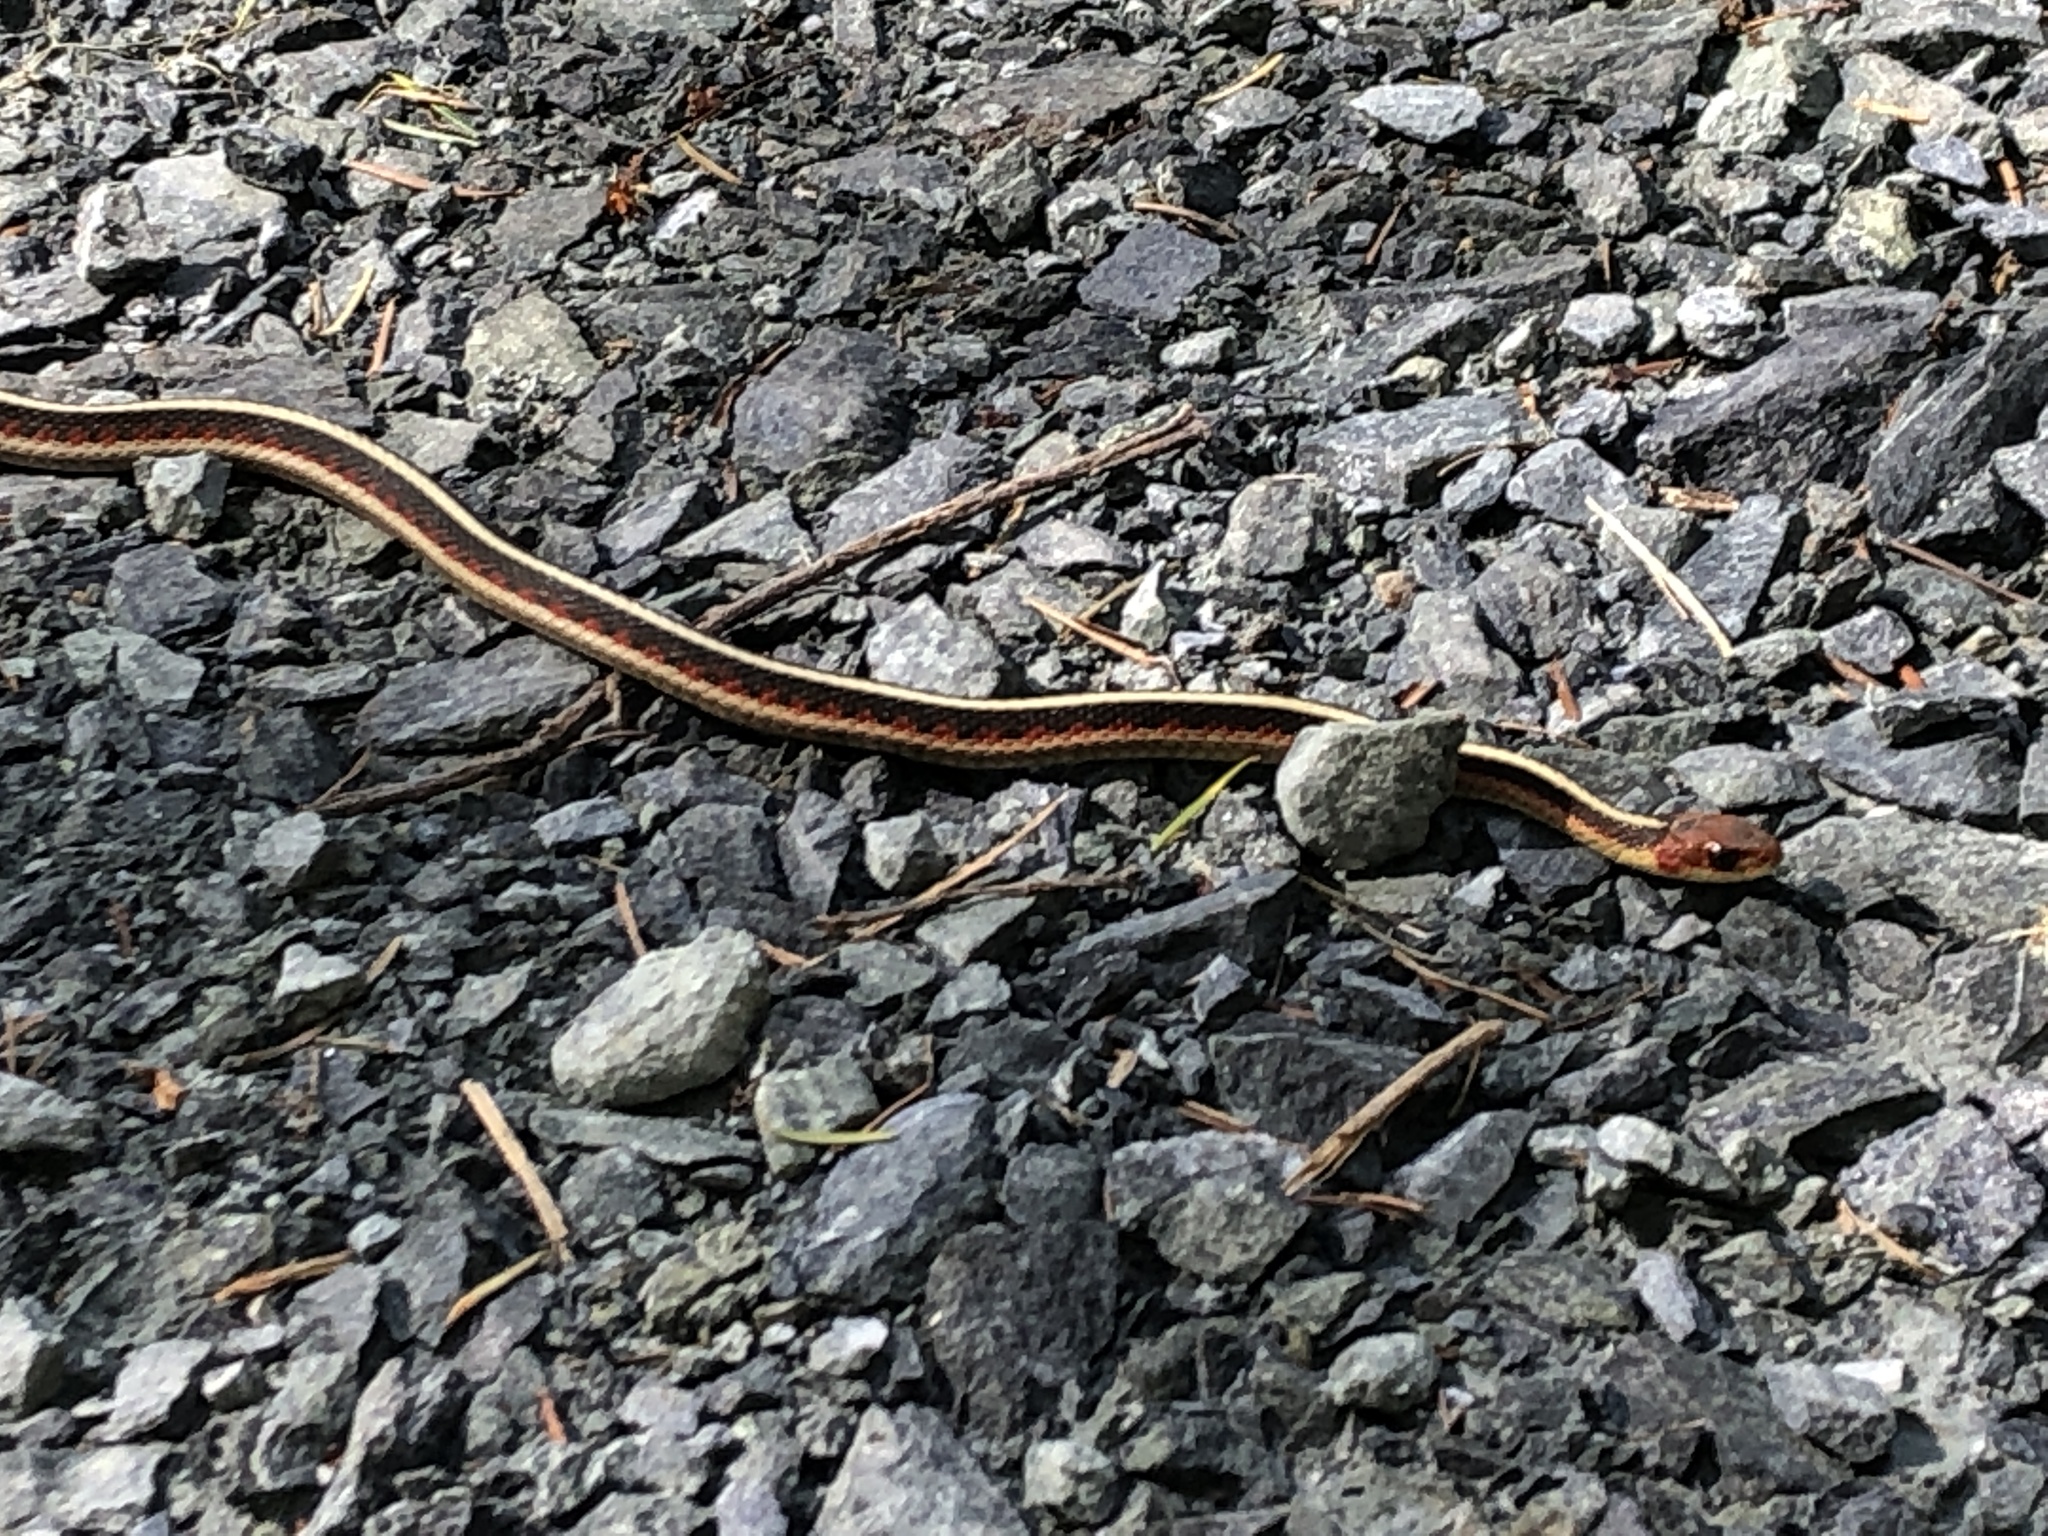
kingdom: Animalia
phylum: Chordata
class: Squamata
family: Colubridae
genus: Thamnophis
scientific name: Thamnophis sirtalis
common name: Common garter snake
